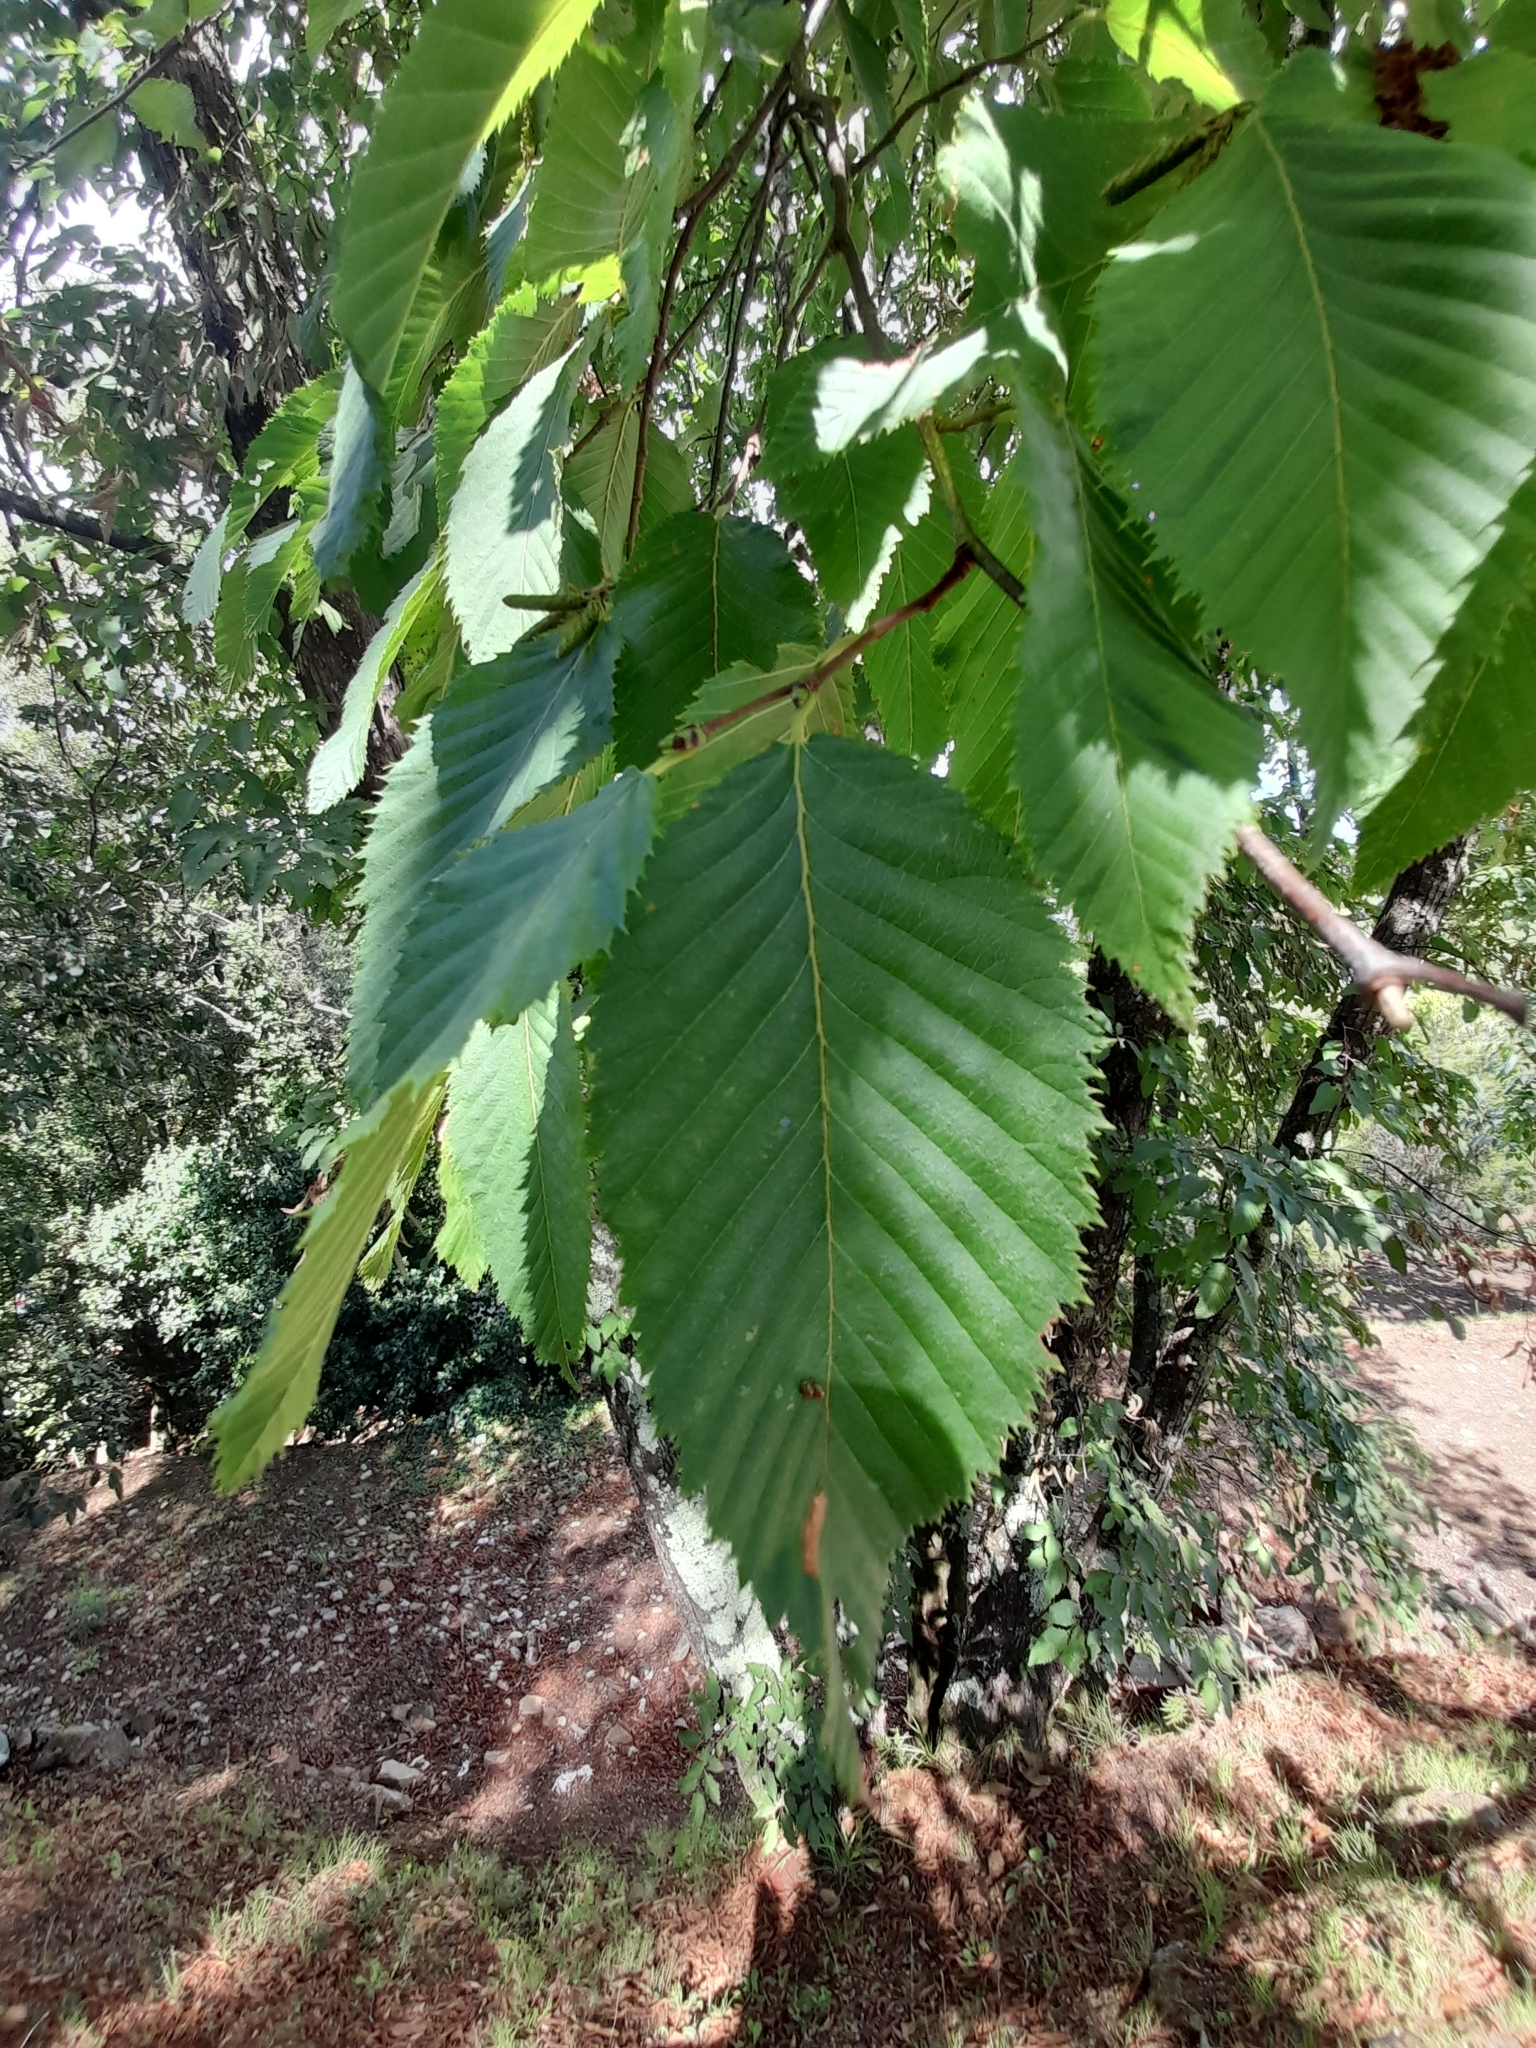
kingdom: Plantae
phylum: Tracheophyta
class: Magnoliopsida
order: Fagales
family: Betulaceae
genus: Ostrya
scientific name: Ostrya carpinifolia
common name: European hop-hornbeam
